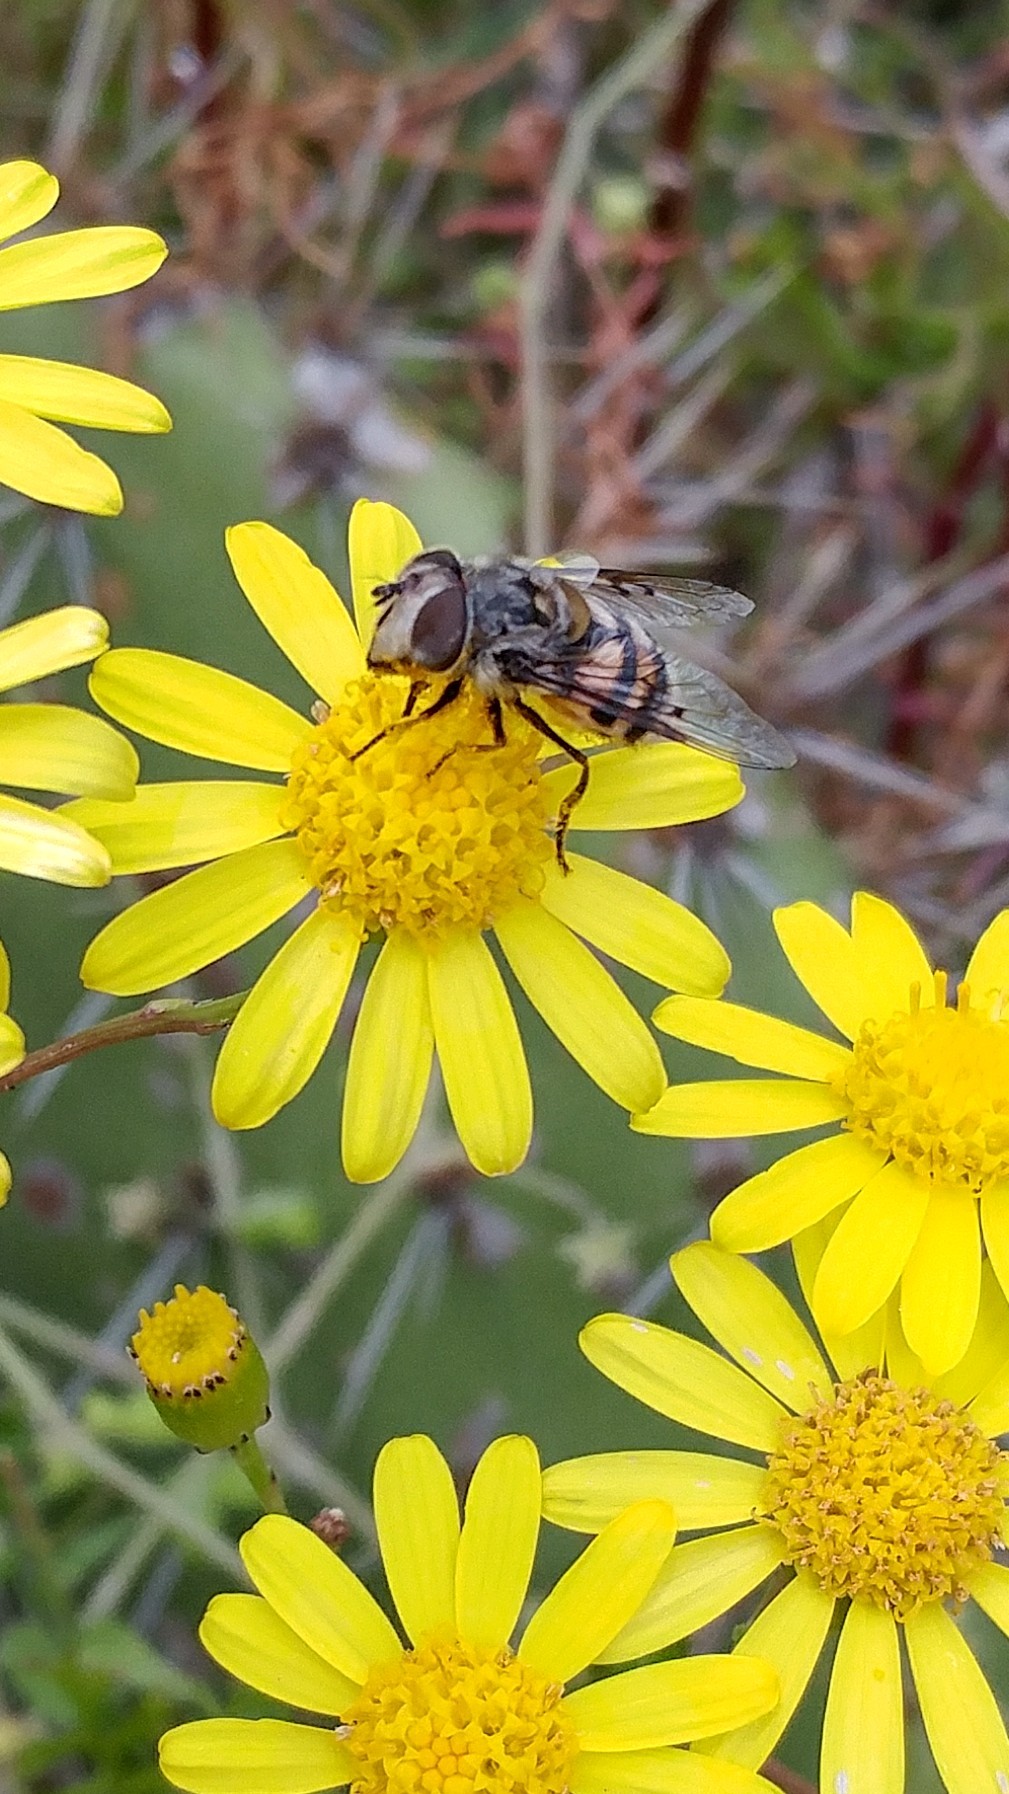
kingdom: Animalia
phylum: Arthropoda
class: Insecta
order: Diptera
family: Syrphidae
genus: Copestylum
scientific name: Copestylum avidum
